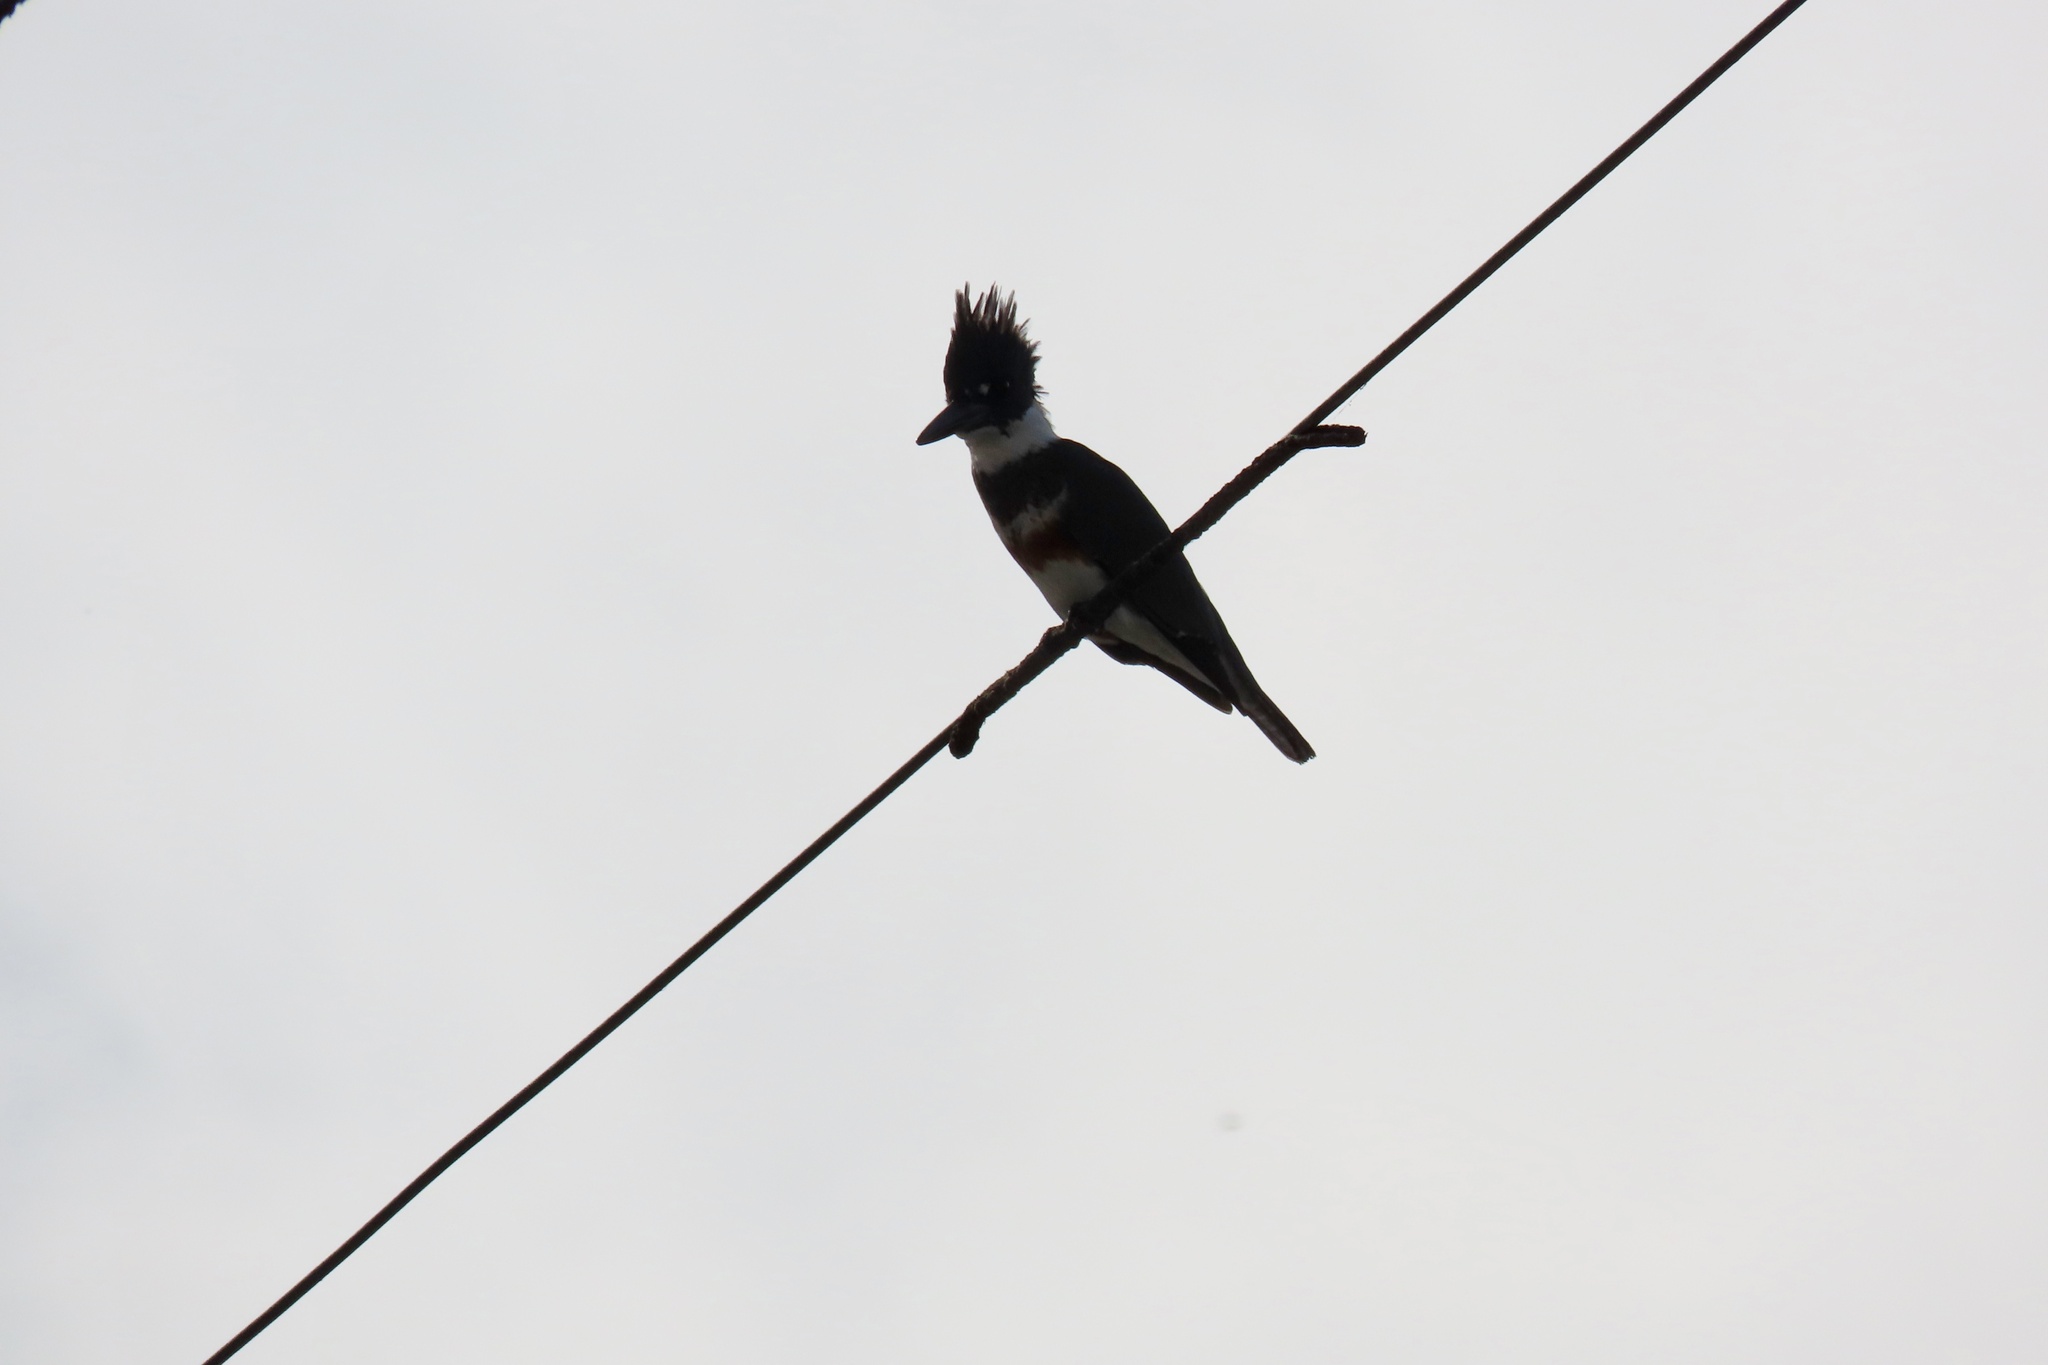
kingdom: Animalia
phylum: Chordata
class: Aves
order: Coraciiformes
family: Alcedinidae
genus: Megaceryle
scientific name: Megaceryle alcyon
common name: Belted kingfisher
